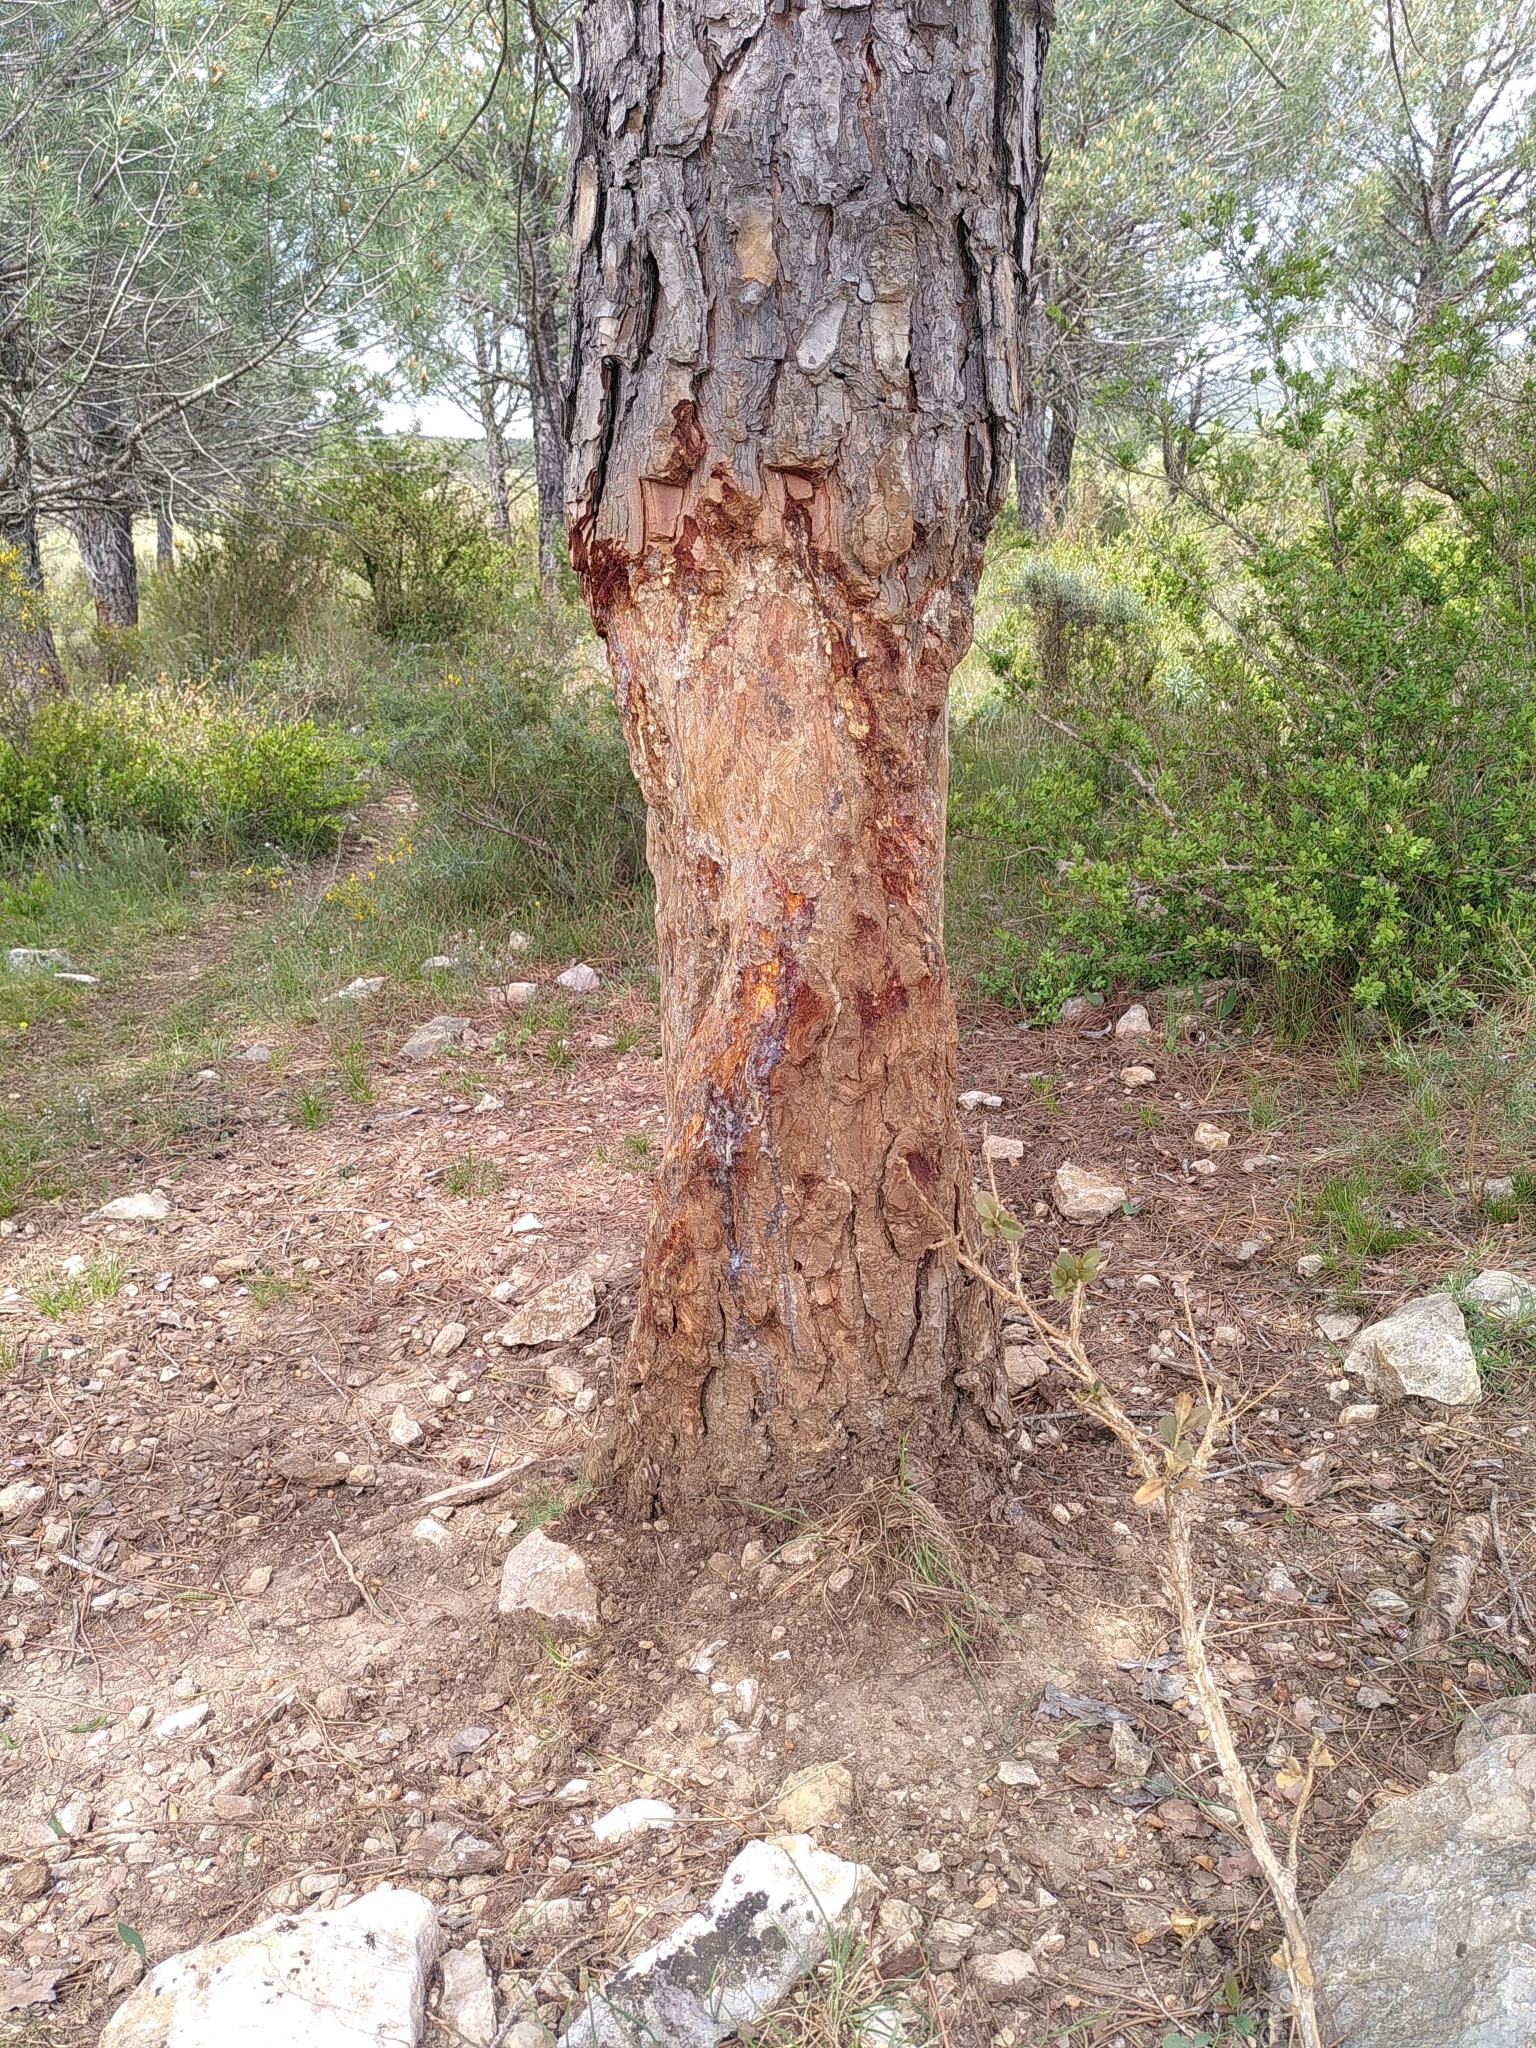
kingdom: Animalia
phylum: Chordata
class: Mammalia
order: Artiodactyla
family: Suidae
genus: Sus
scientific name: Sus scrofa
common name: Wild boar
